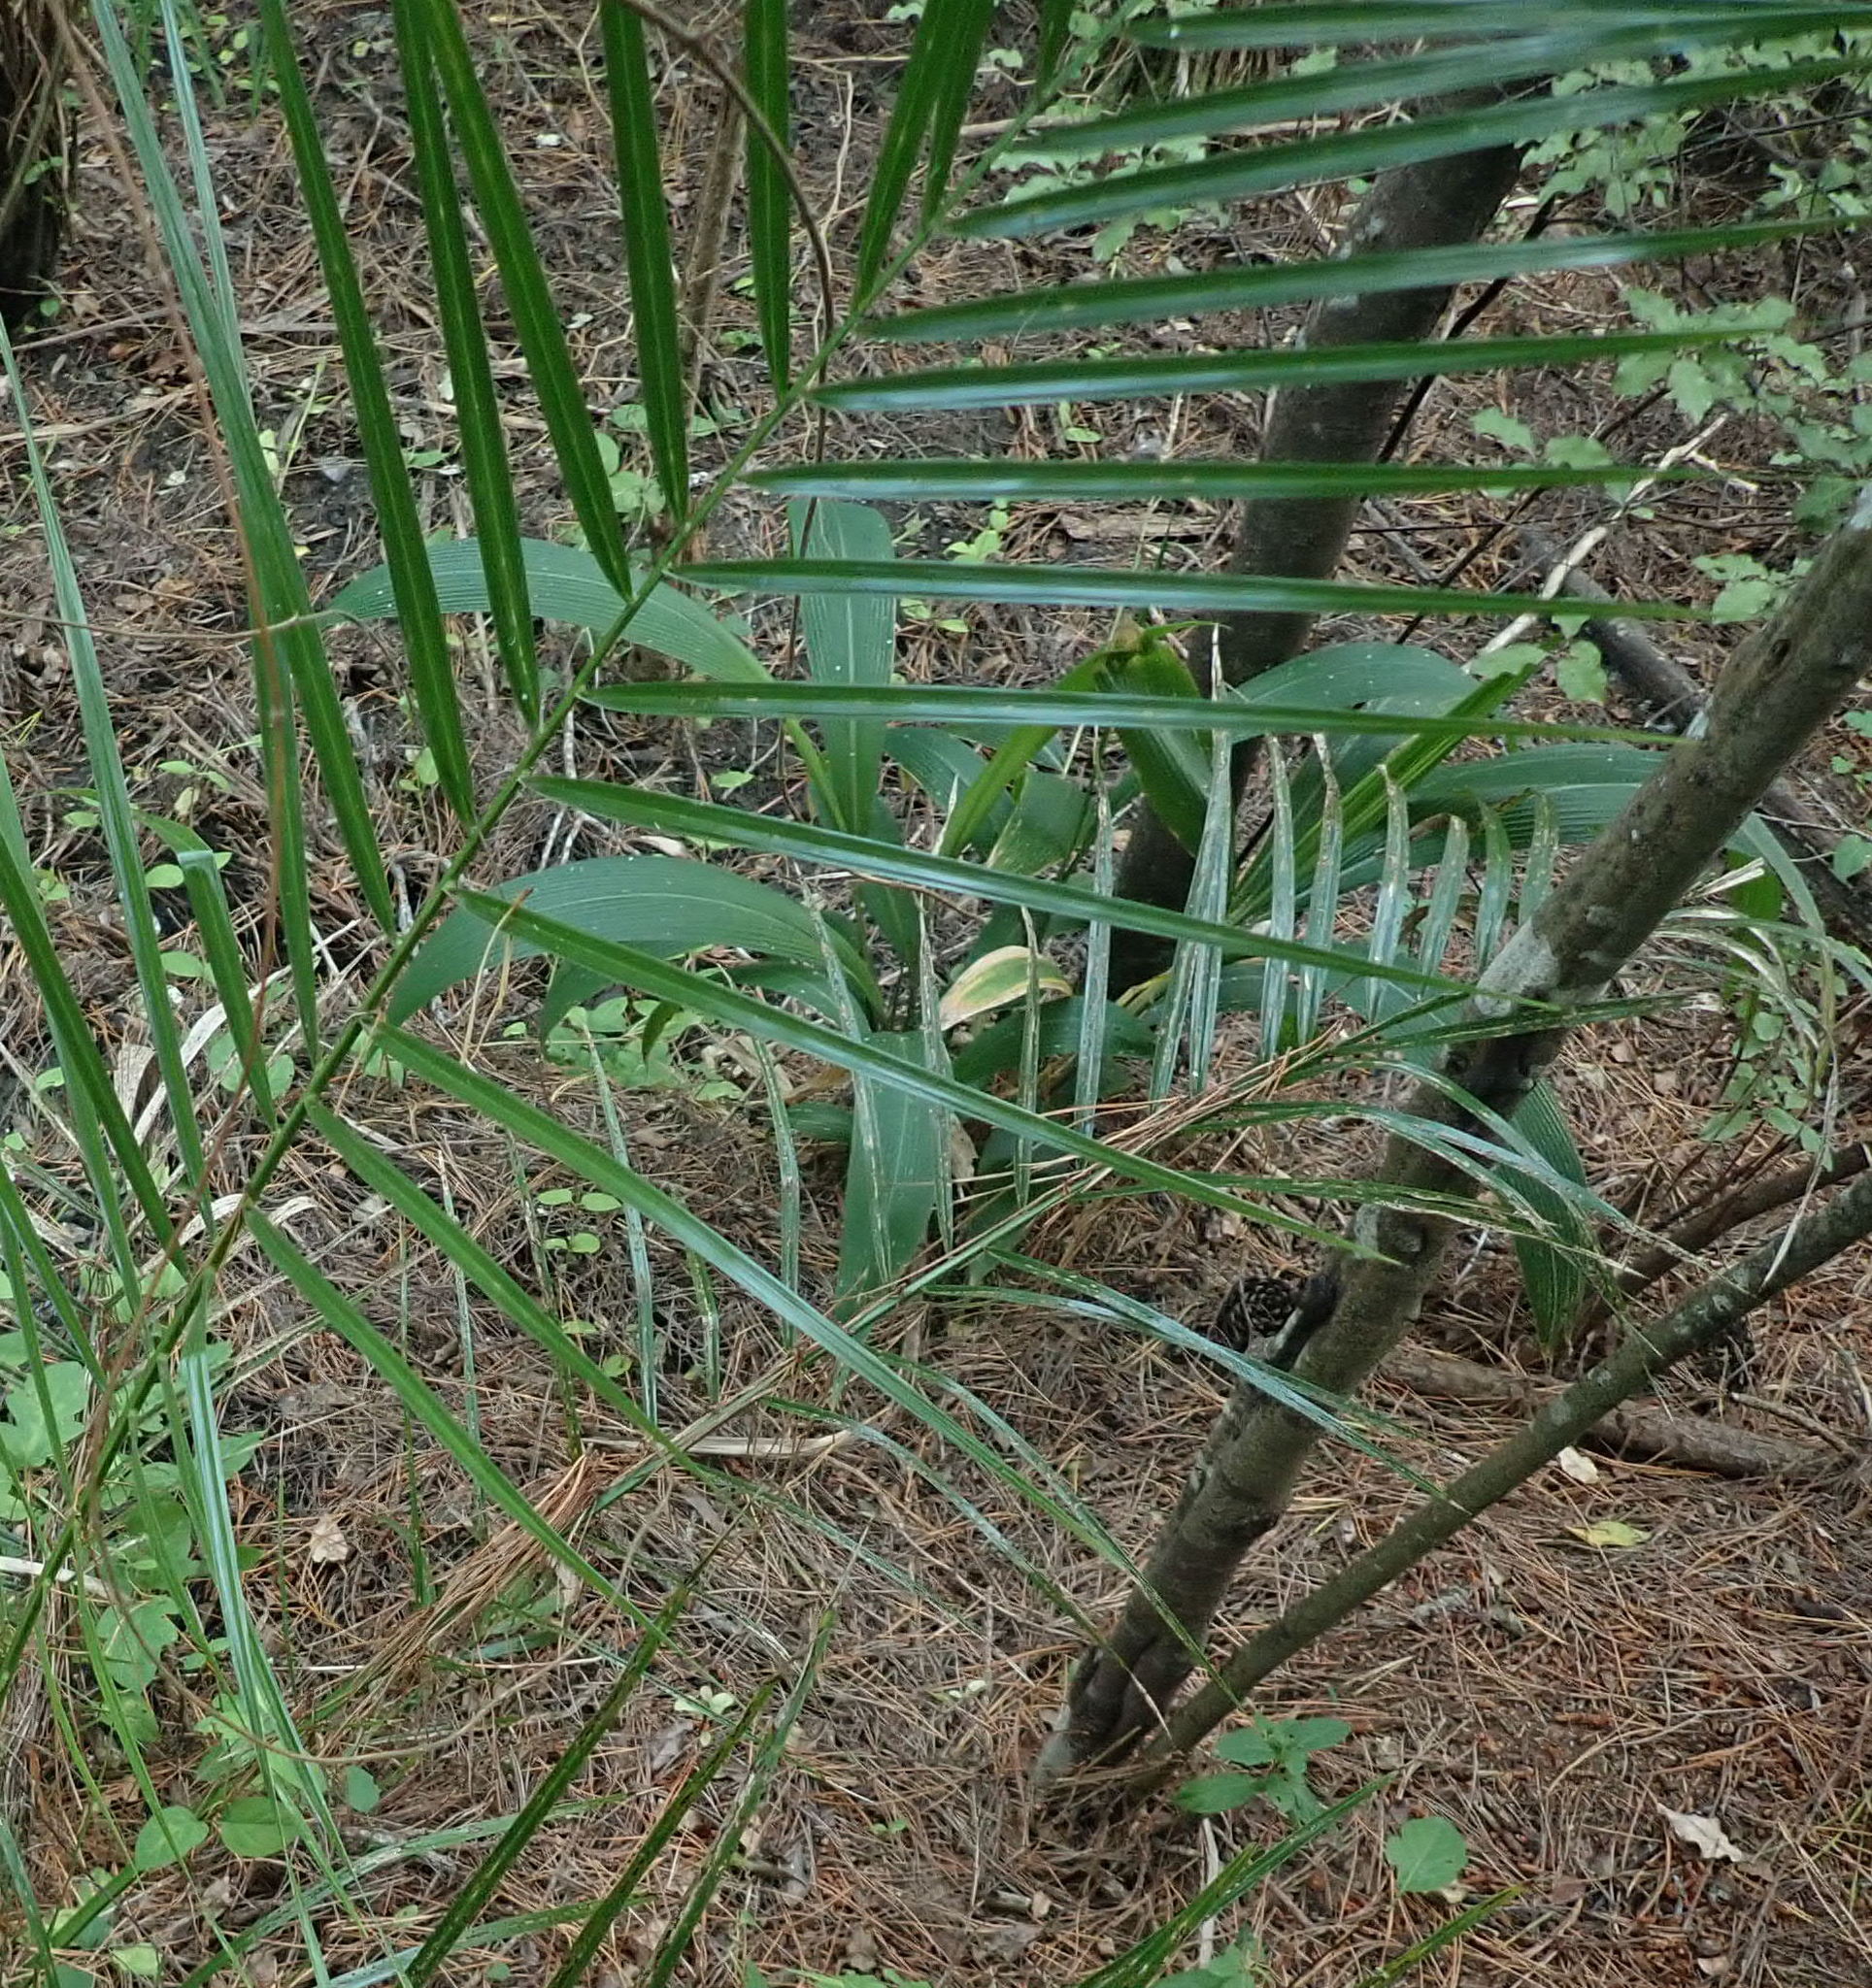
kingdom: Plantae
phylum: Tracheophyta
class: Liliopsida
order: Arecales
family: Arecaceae
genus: Phoenix
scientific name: Phoenix canariensis
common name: Canary island date palm
